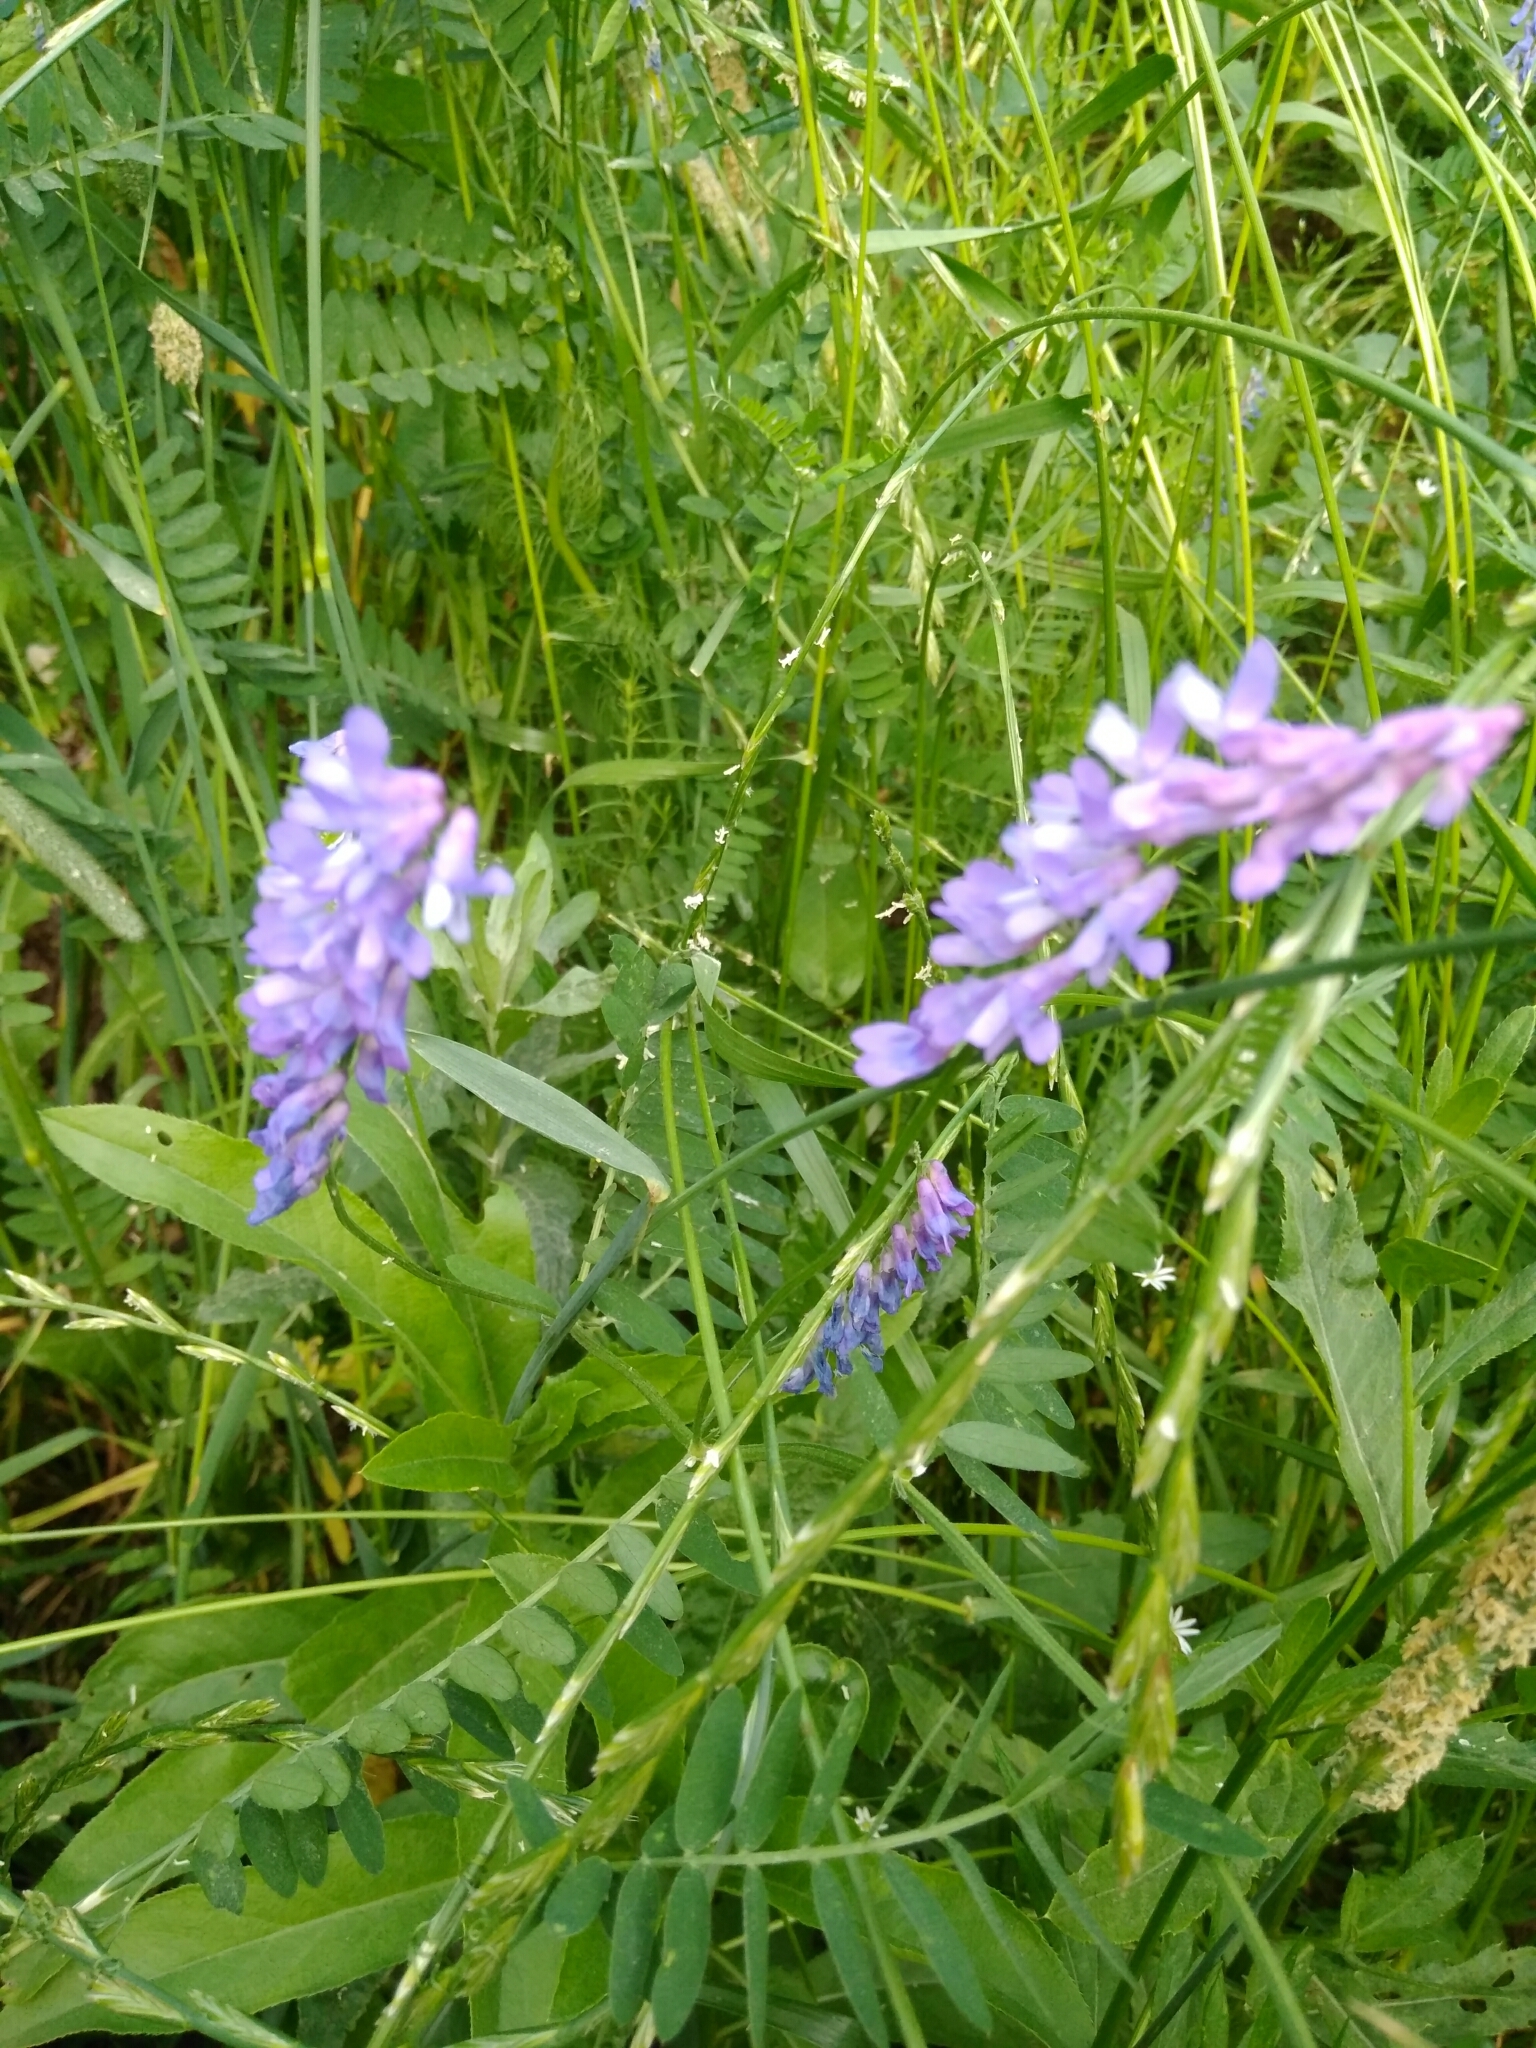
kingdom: Plantae
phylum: Tracheophyta
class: Magnoliopsida
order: Fabales
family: Fabaceae
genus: Vicia
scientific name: Vicia cracca
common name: Bird vetch
